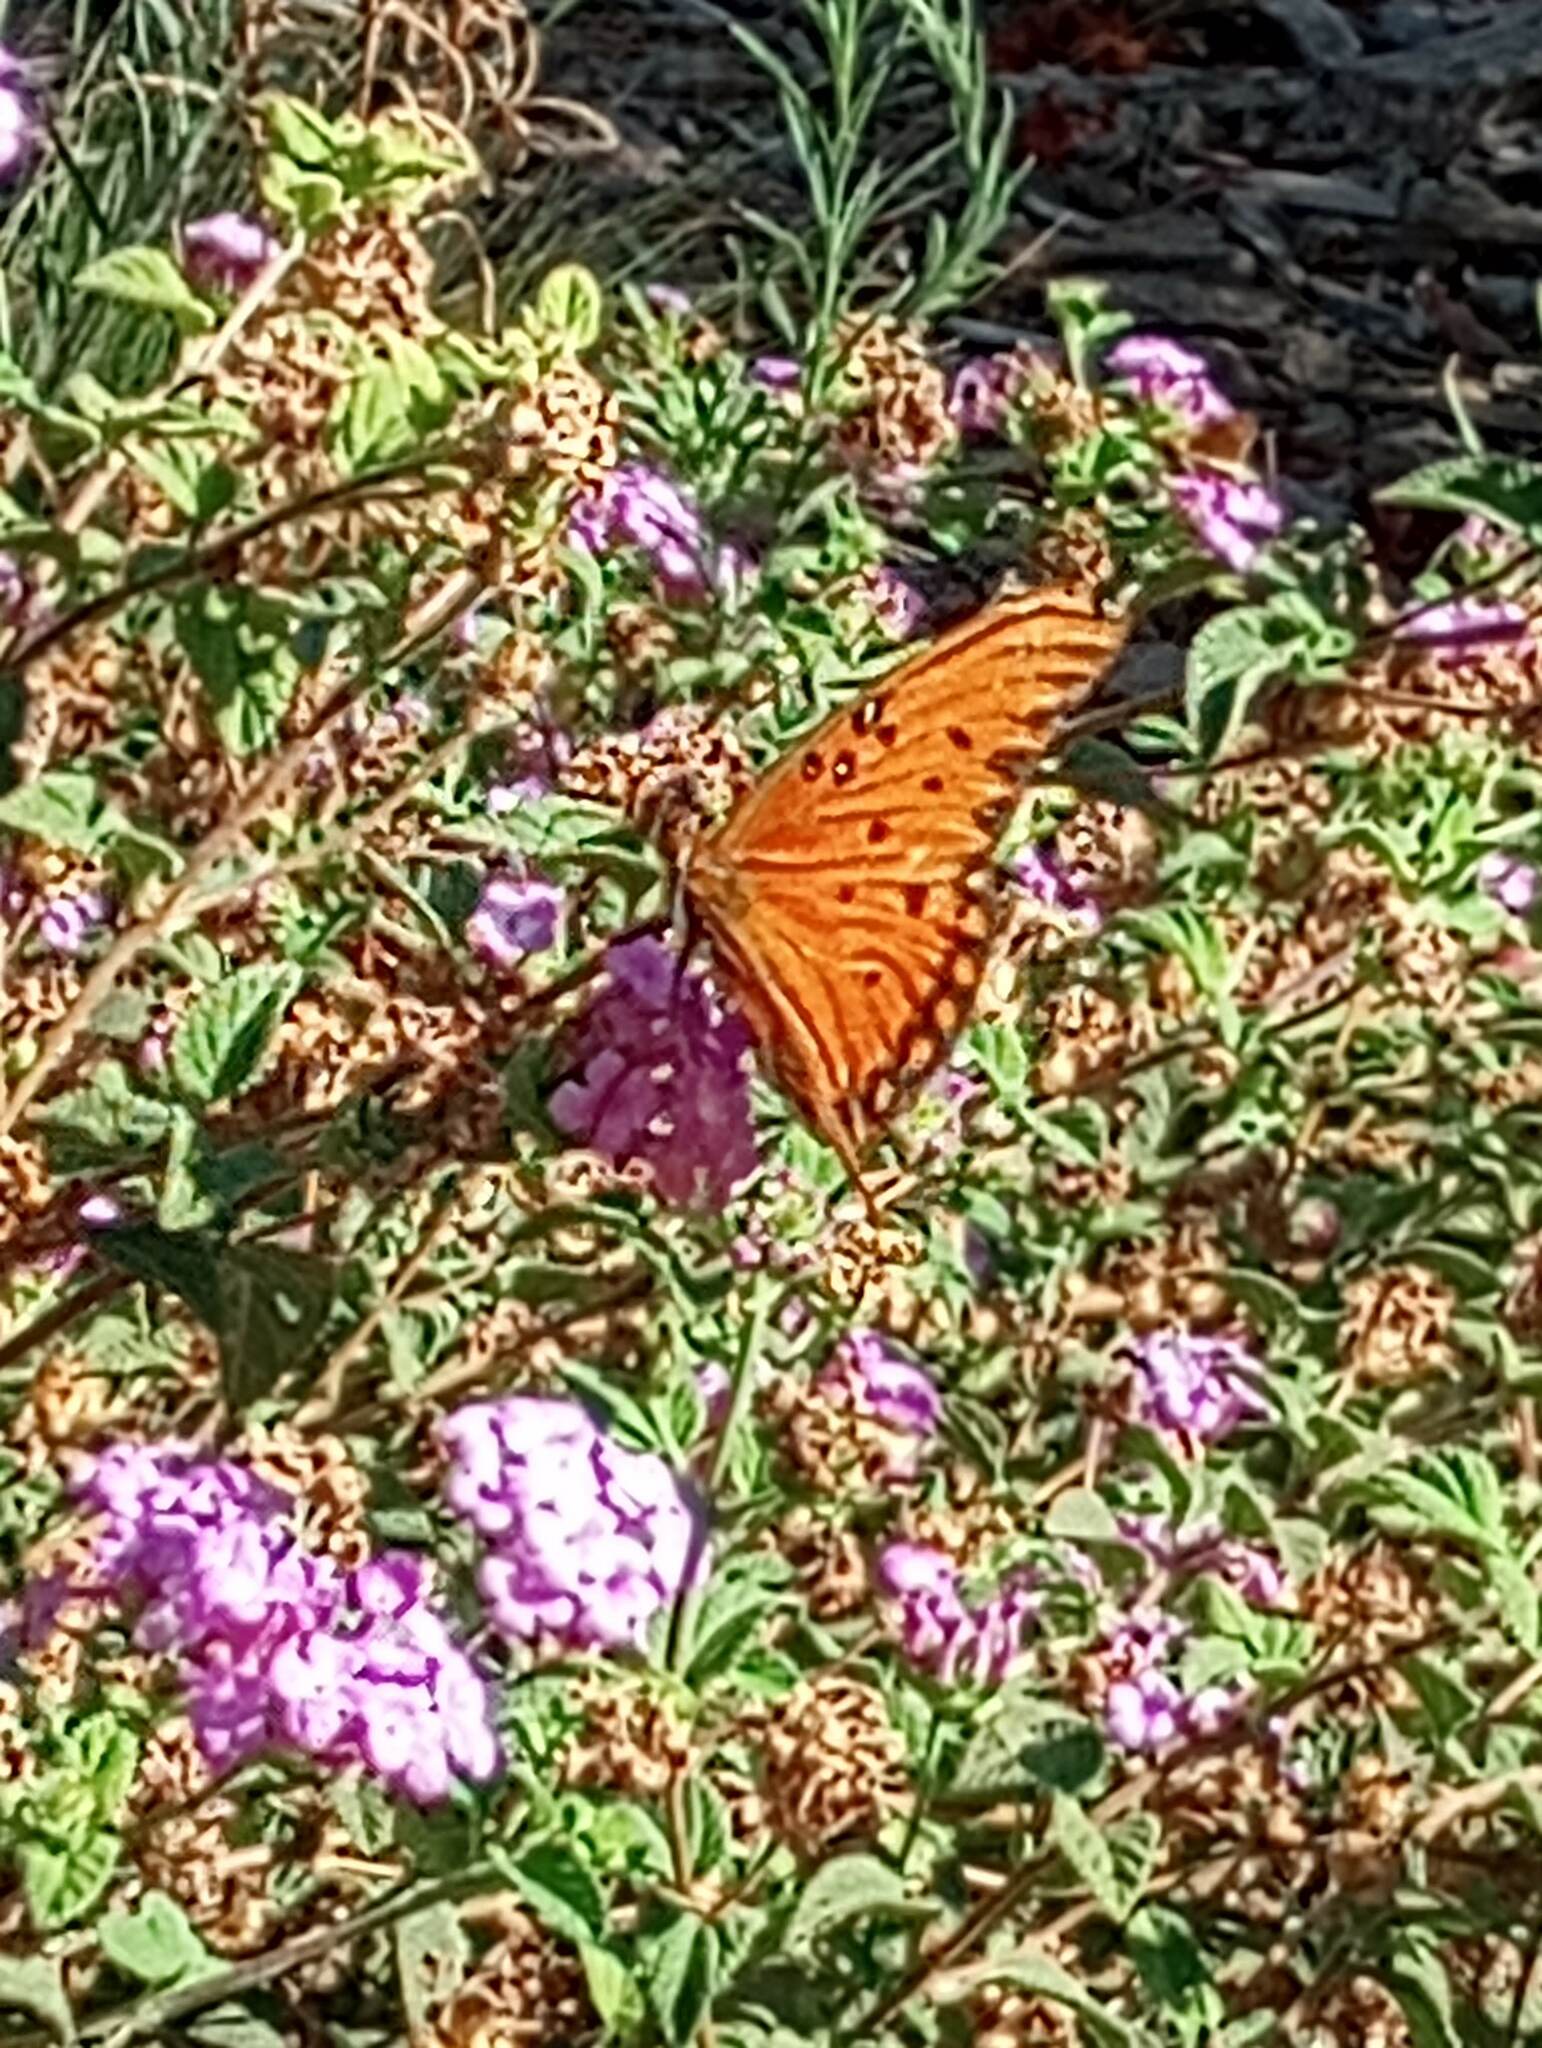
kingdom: Animalia
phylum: Arthropoda
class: Insecta
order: Lepidoptera
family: Nymphalidae
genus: Dione
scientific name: Dione vanillae
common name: Gulf fritillary
